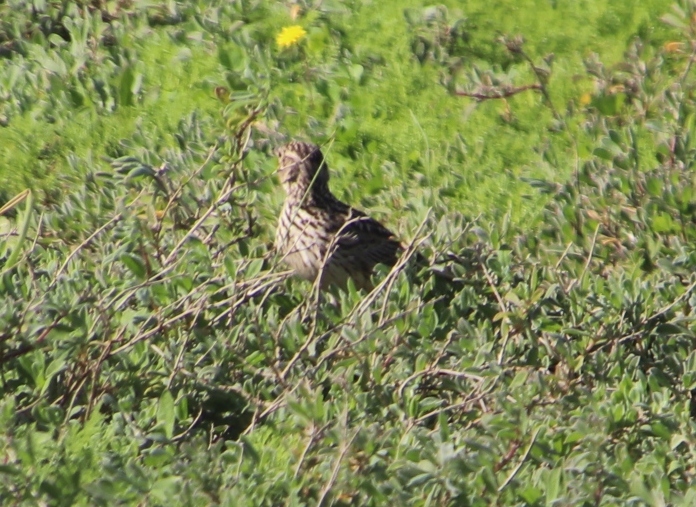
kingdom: Animalia
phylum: Chordata
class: Aves
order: Passeriformes
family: Alaudidae
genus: Galerida
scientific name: Galerida magnirostris
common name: Large-billed lark
